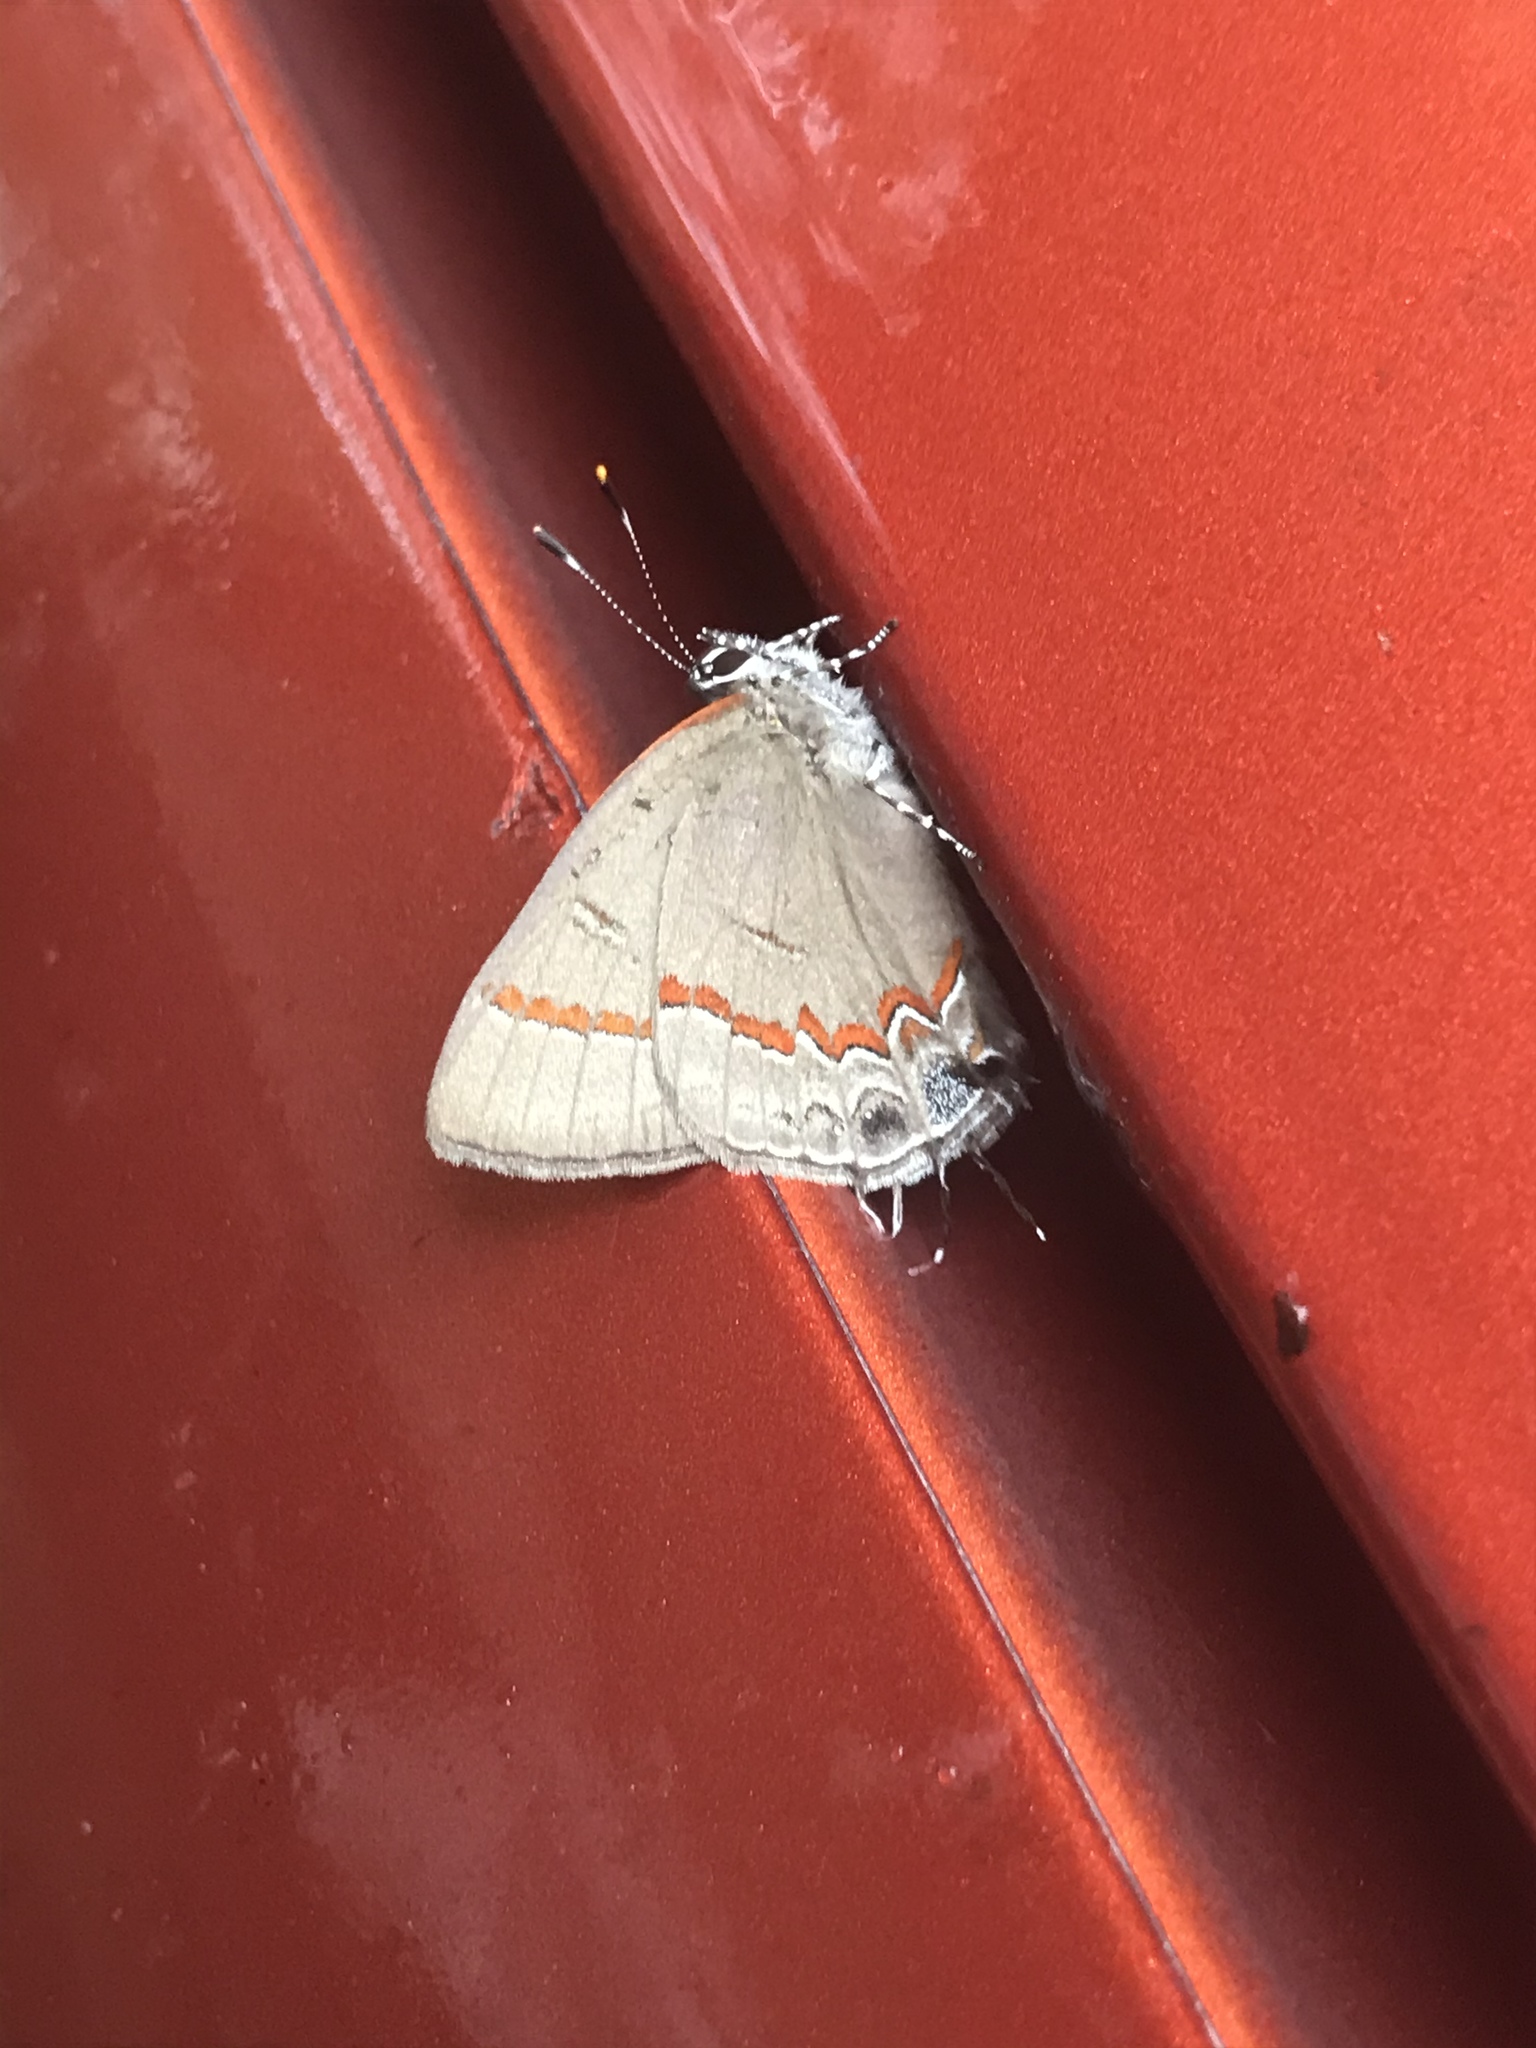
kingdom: Animalia
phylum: Arthropoda
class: Insecta
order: Lepidoptera
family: Lycaenidae
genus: Calycopis
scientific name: Calycopis cecrops
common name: Red-banded hairstreak
